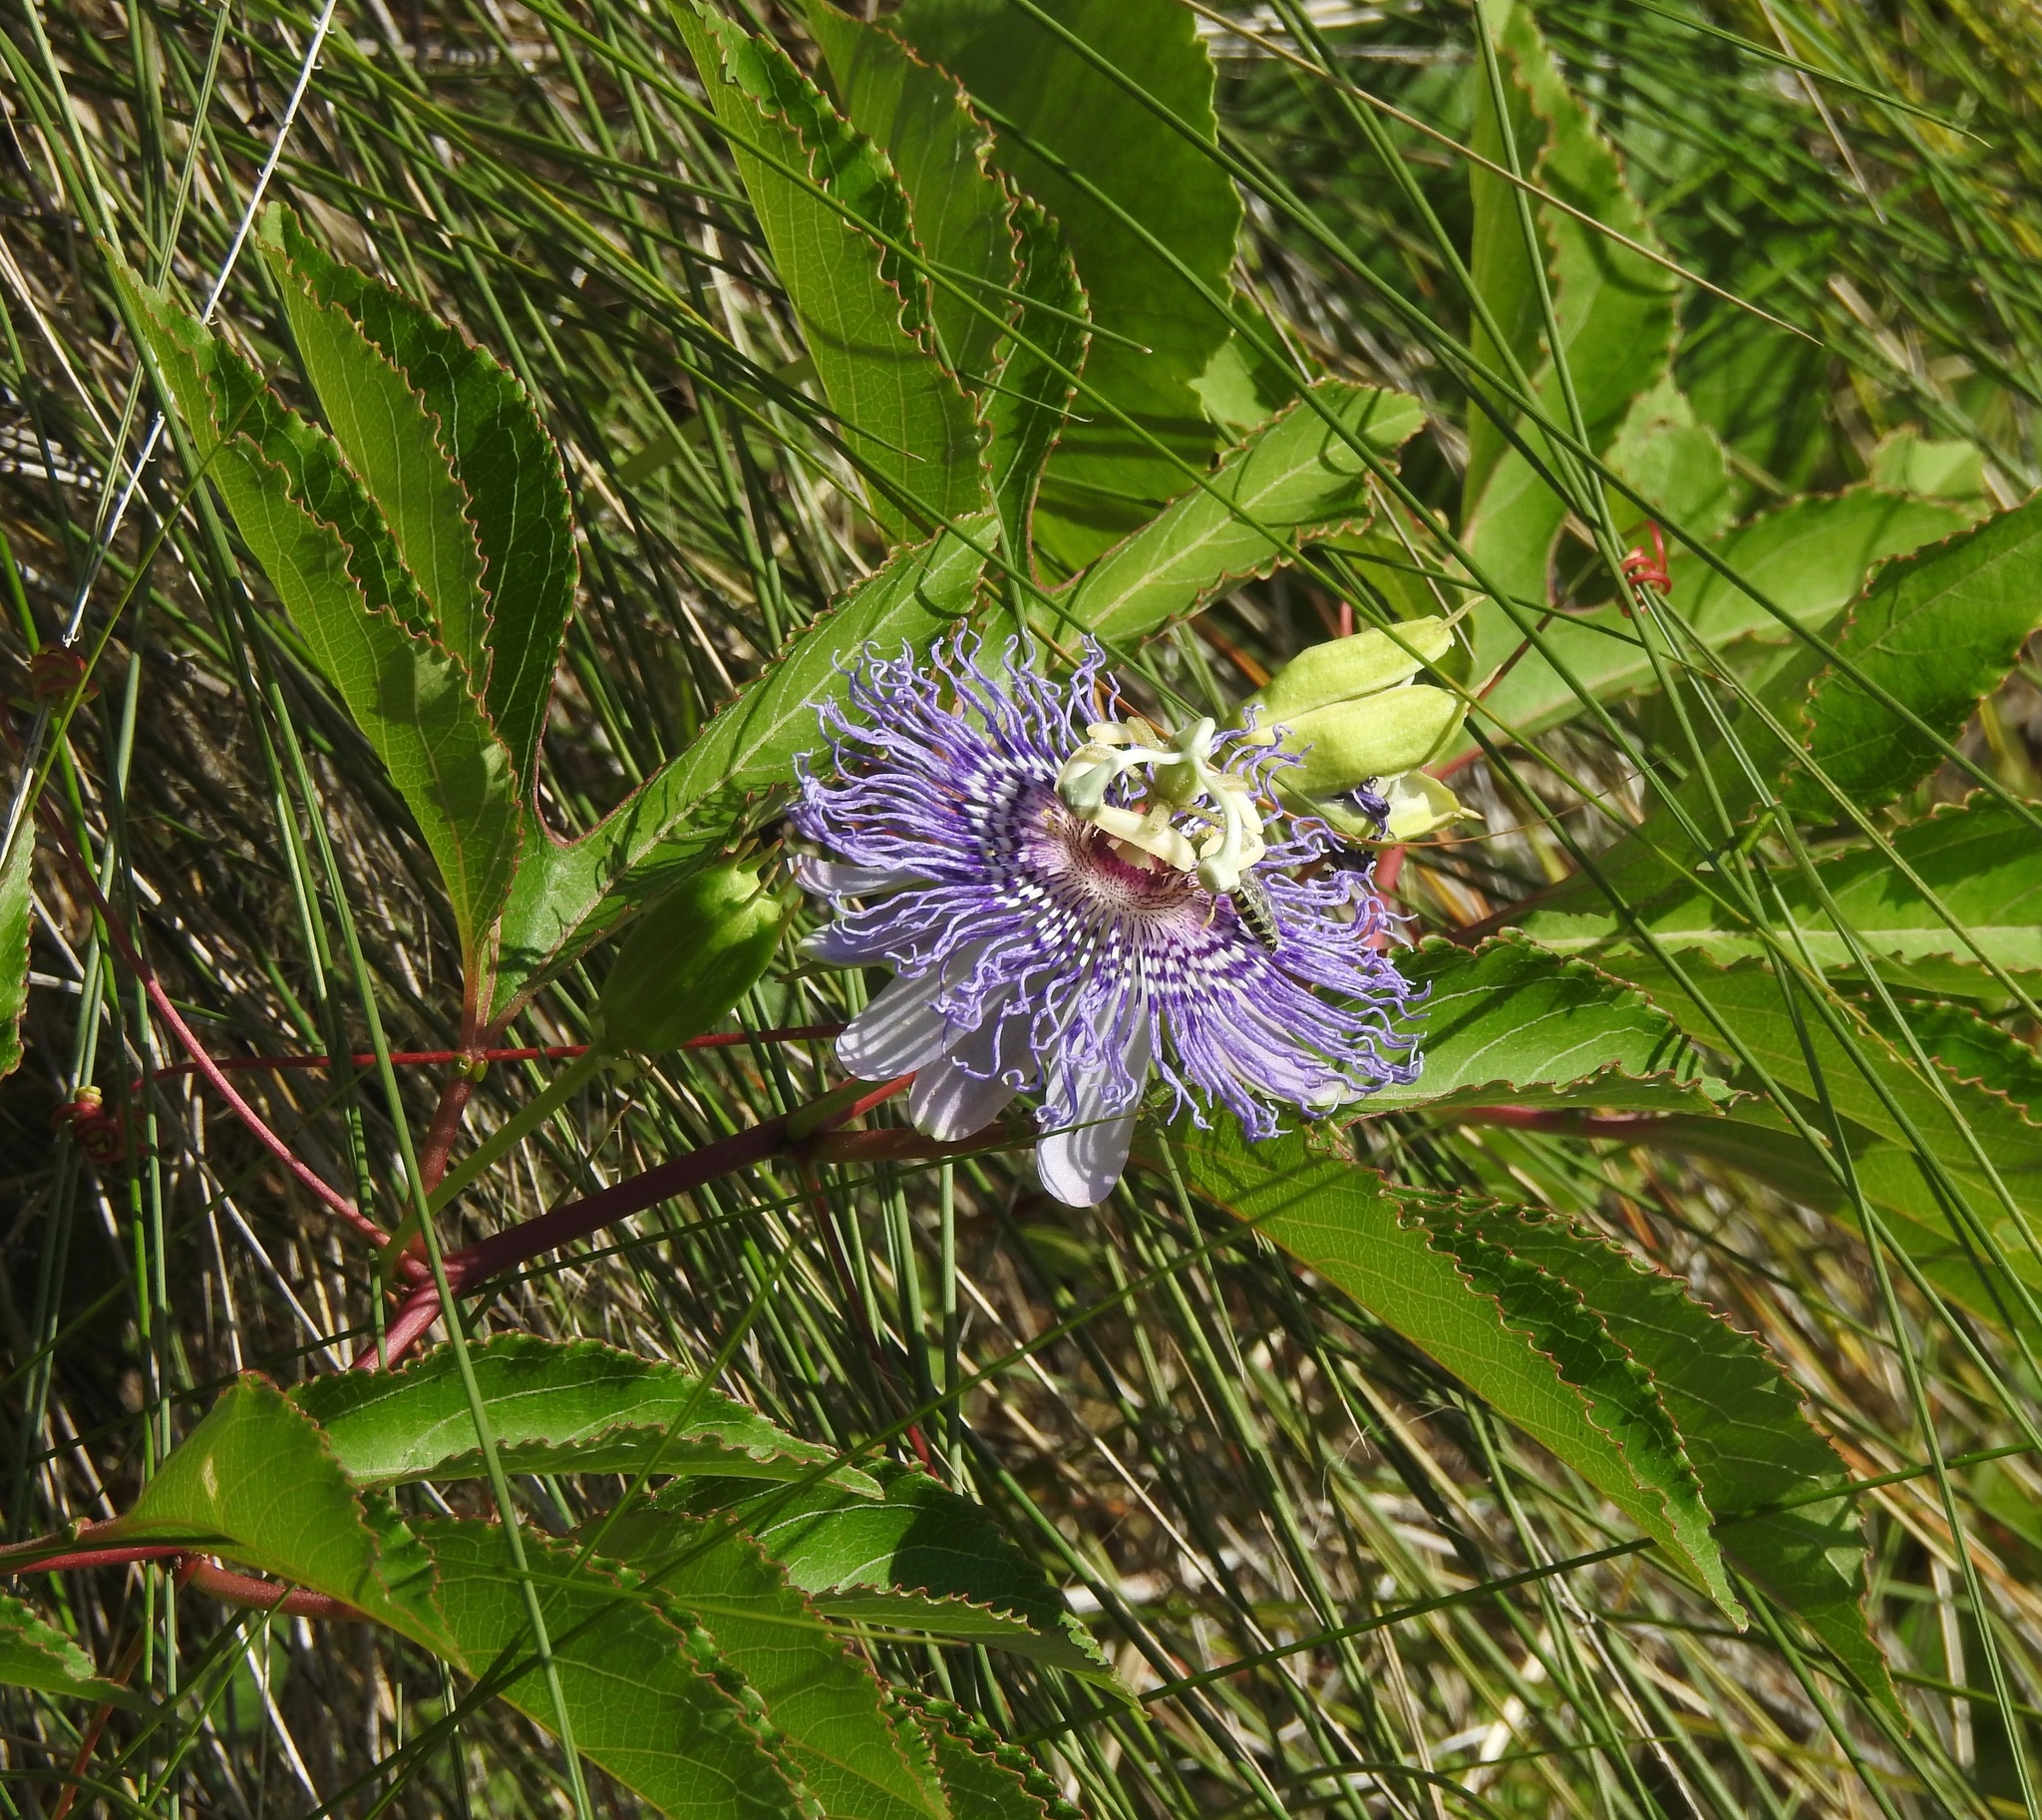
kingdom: Plantae
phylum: Tracheophyta
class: Magnoliopsida
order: Malpighiales
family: Passifloraceae
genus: Passiflora
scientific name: Passiflora incarnata
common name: Apricot-vine
